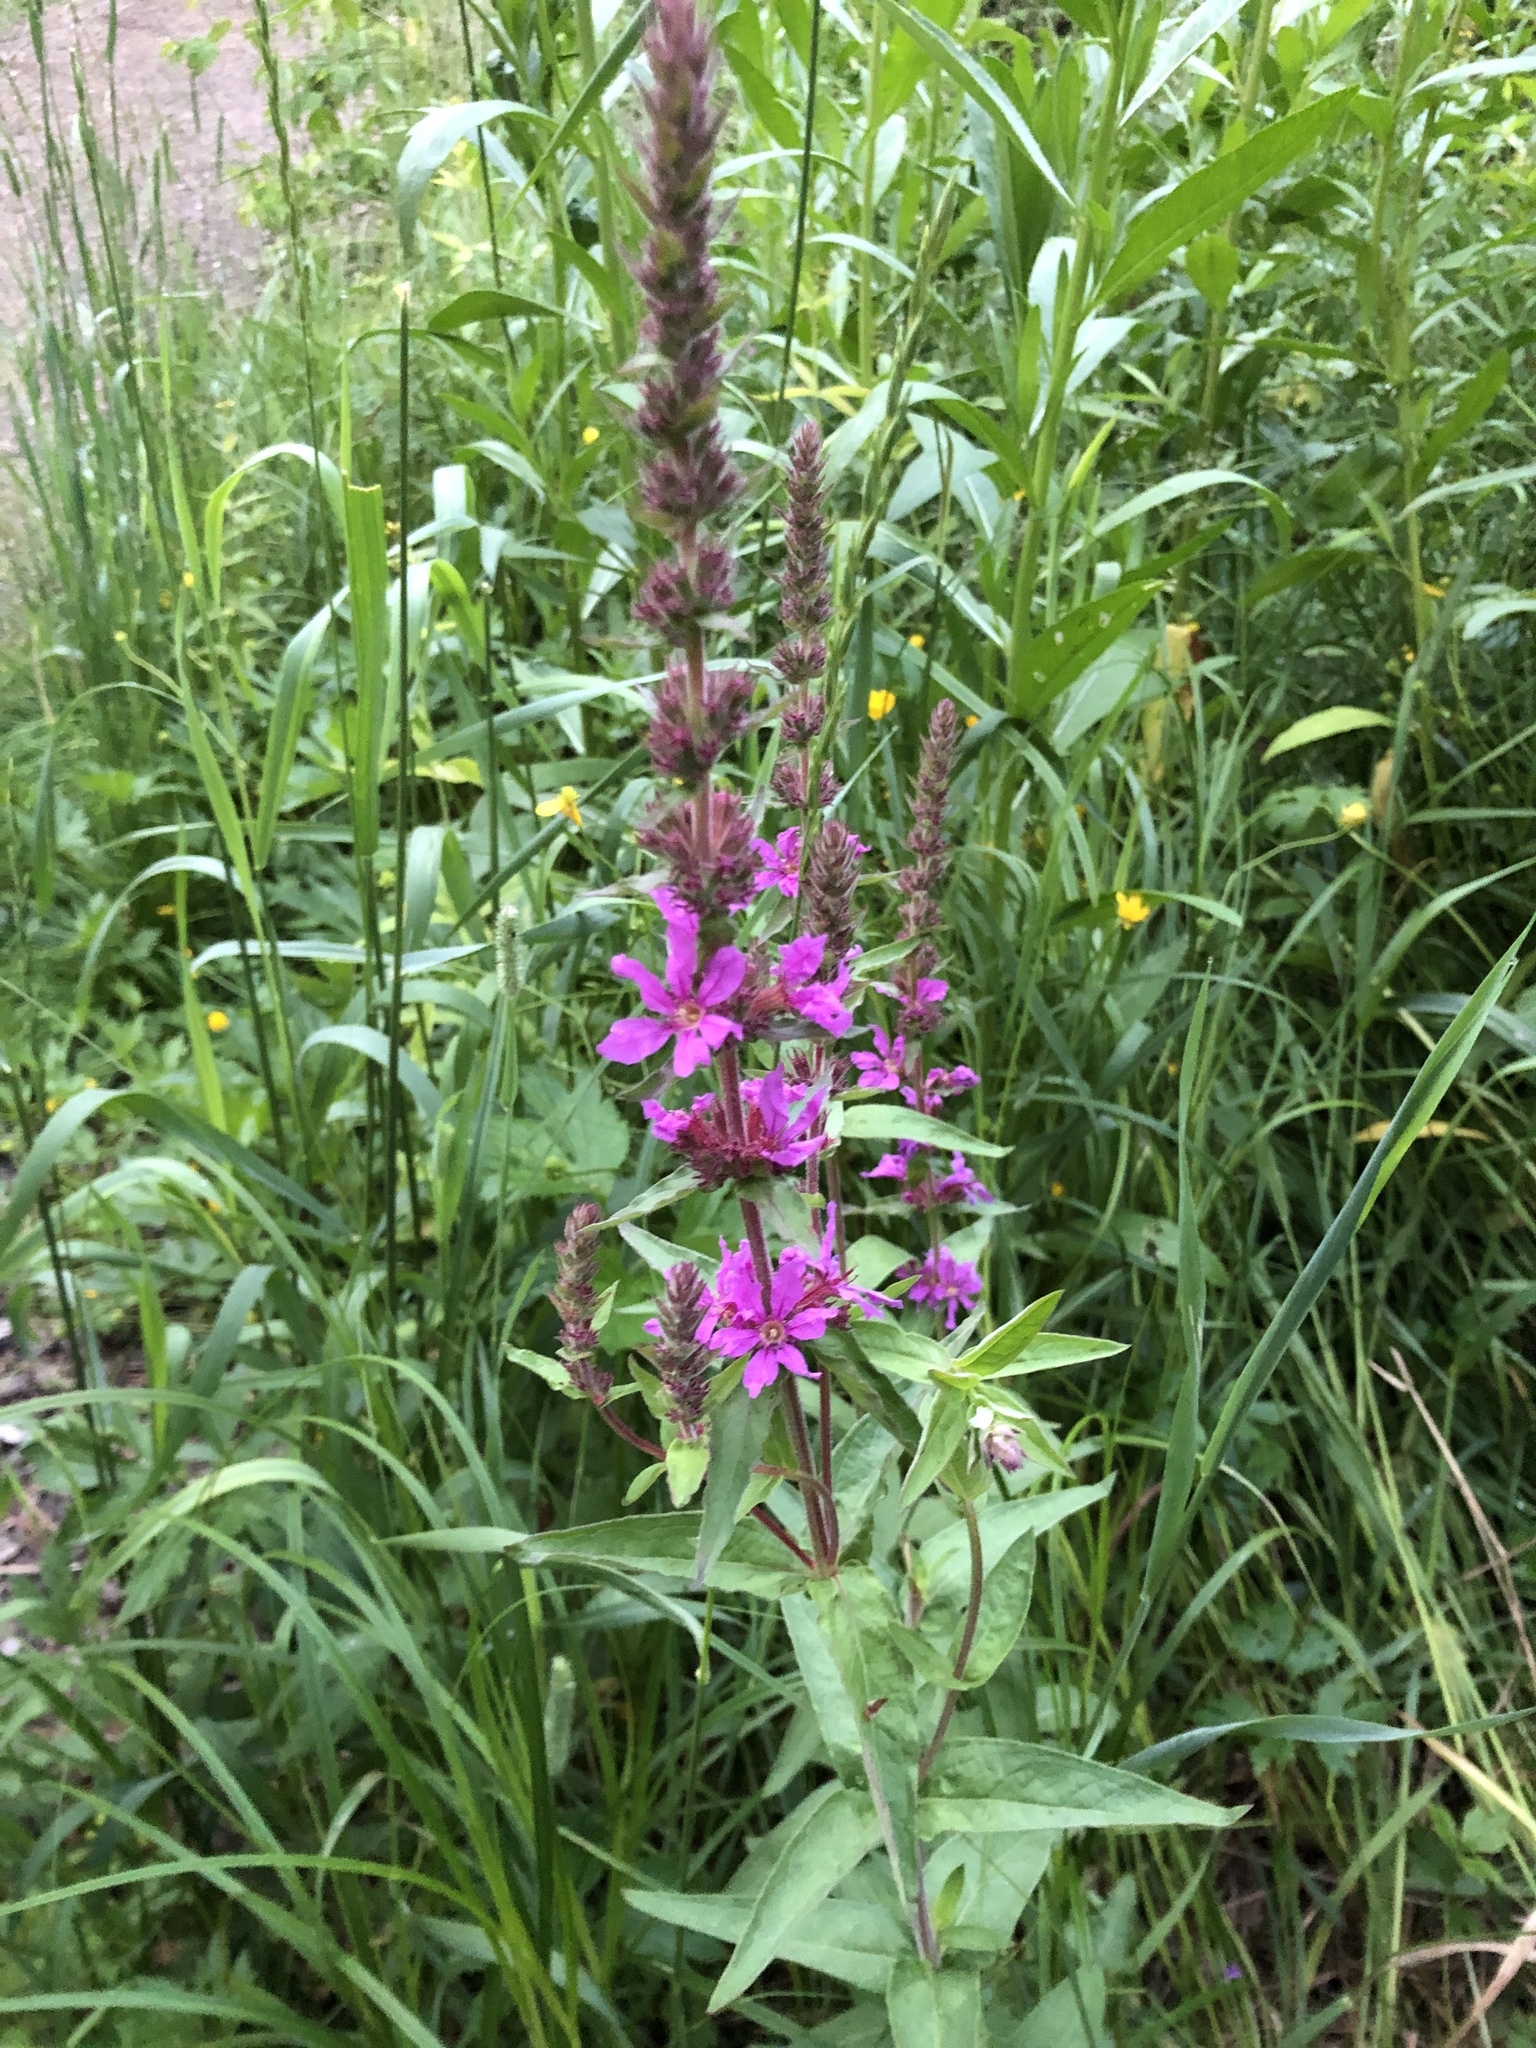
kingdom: Plantae
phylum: Tracheophyta
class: Magnoliopsida
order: Myrtales
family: Lythraceae
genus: Lythrum
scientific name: Lythrum salicaria
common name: Purple loosestrife
